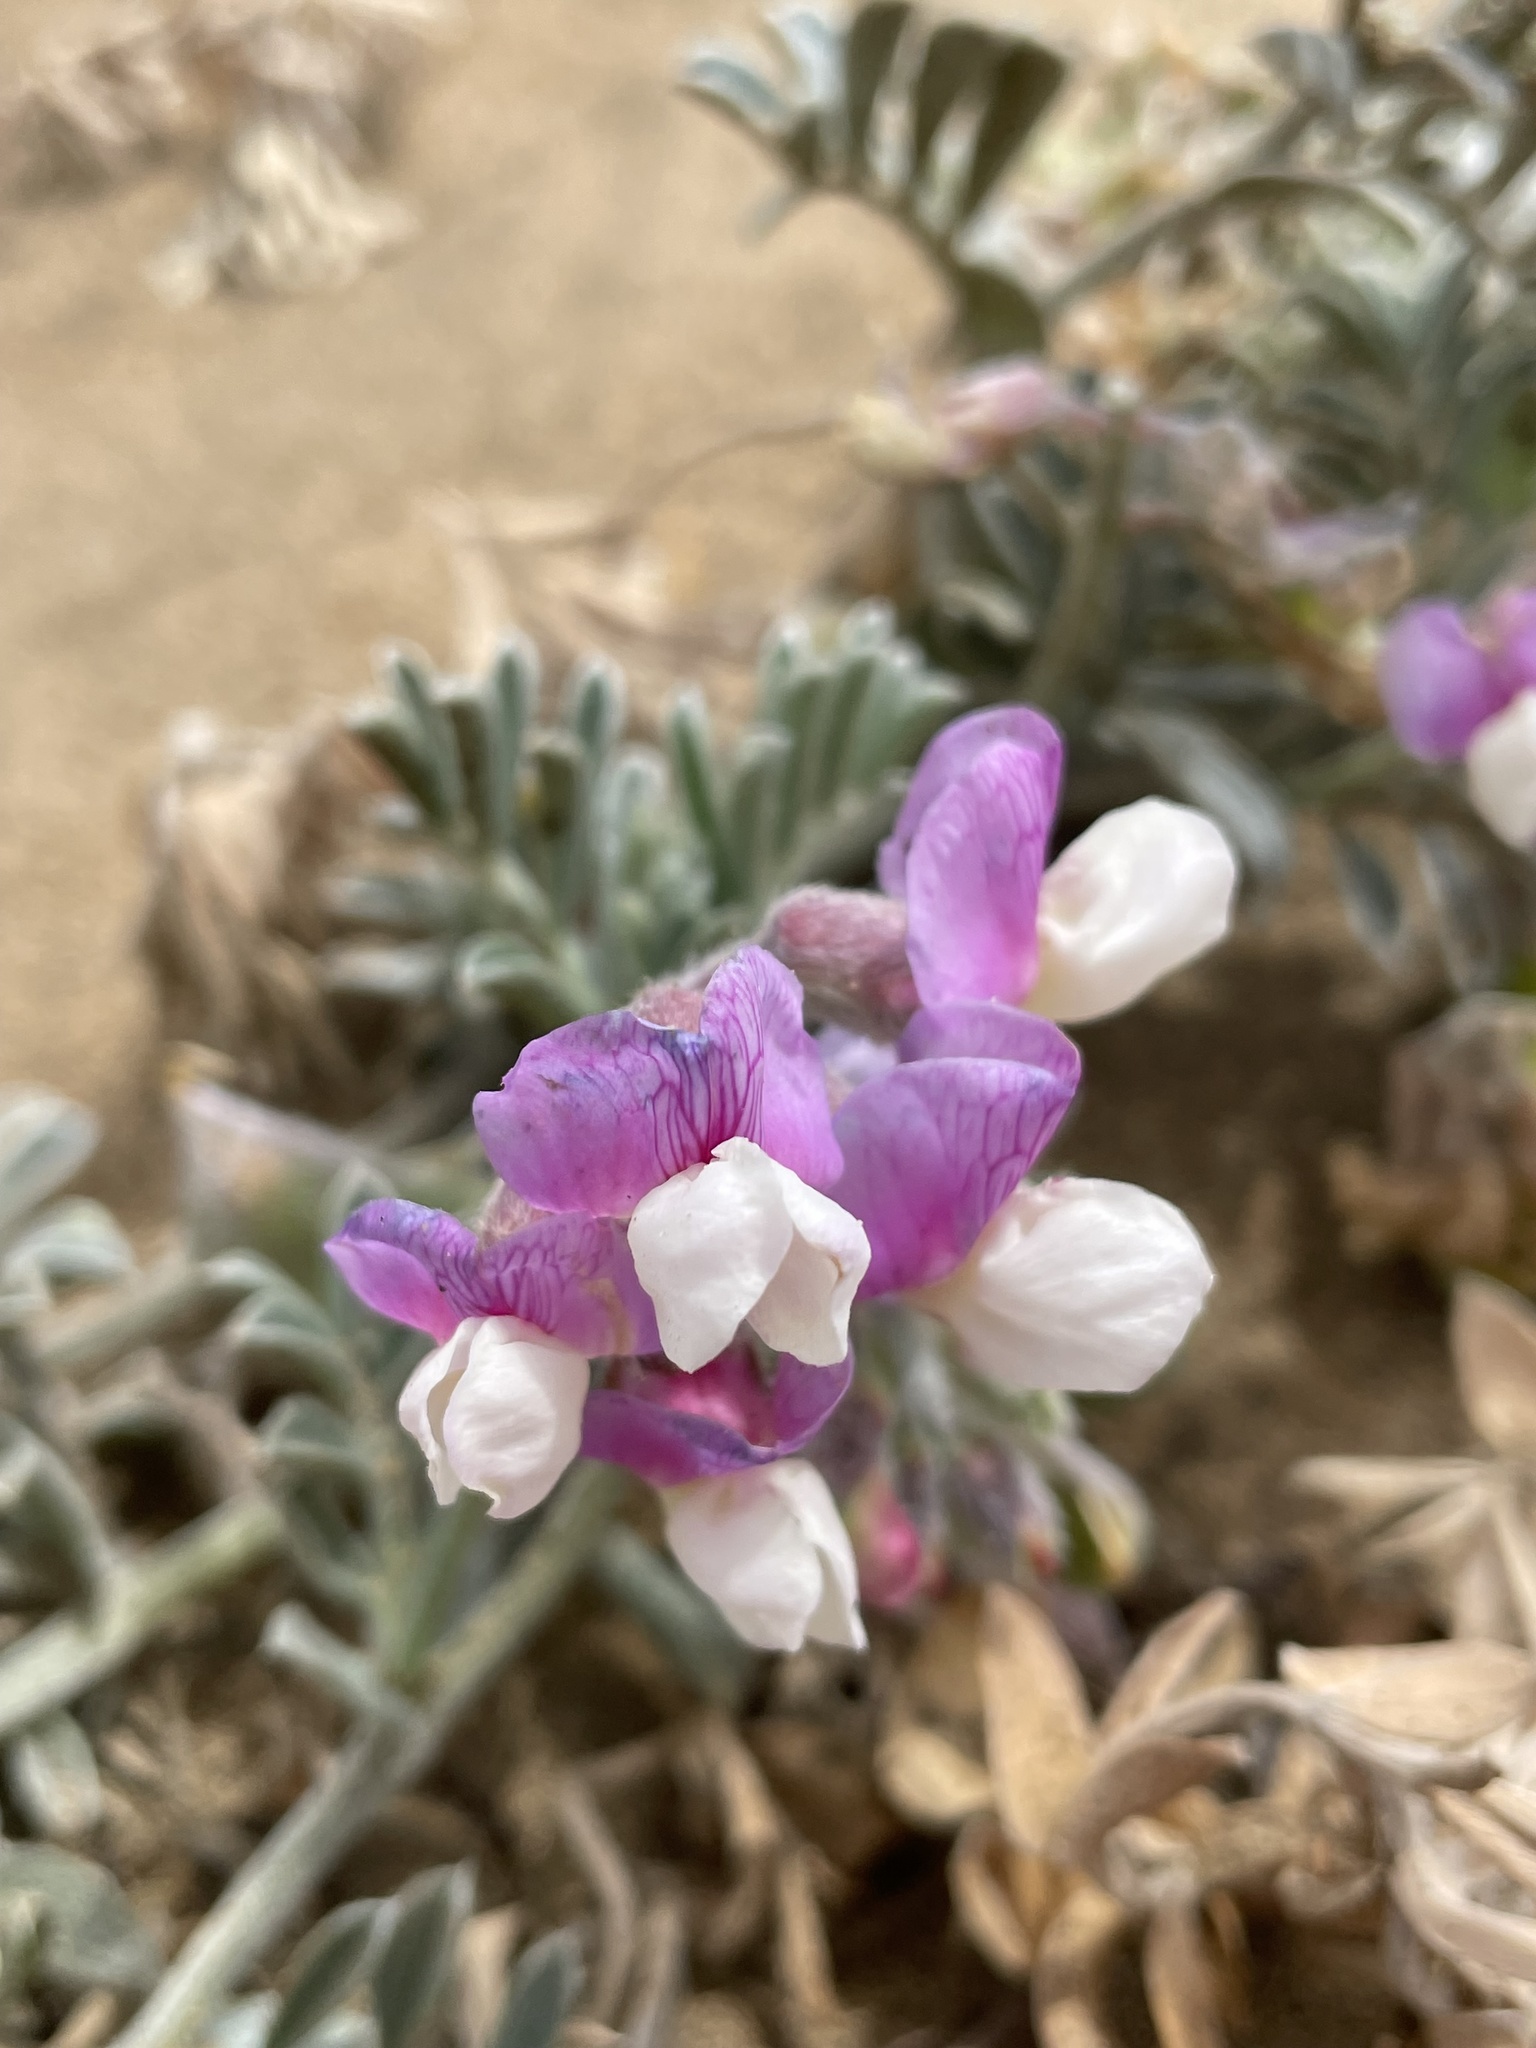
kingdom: Plantae
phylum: Tracheophyta
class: Magnoliopsida
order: Fabales
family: Fabaceae
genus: Lathyrus
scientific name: Lathyrus littoralis
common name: Dune sweet pea
